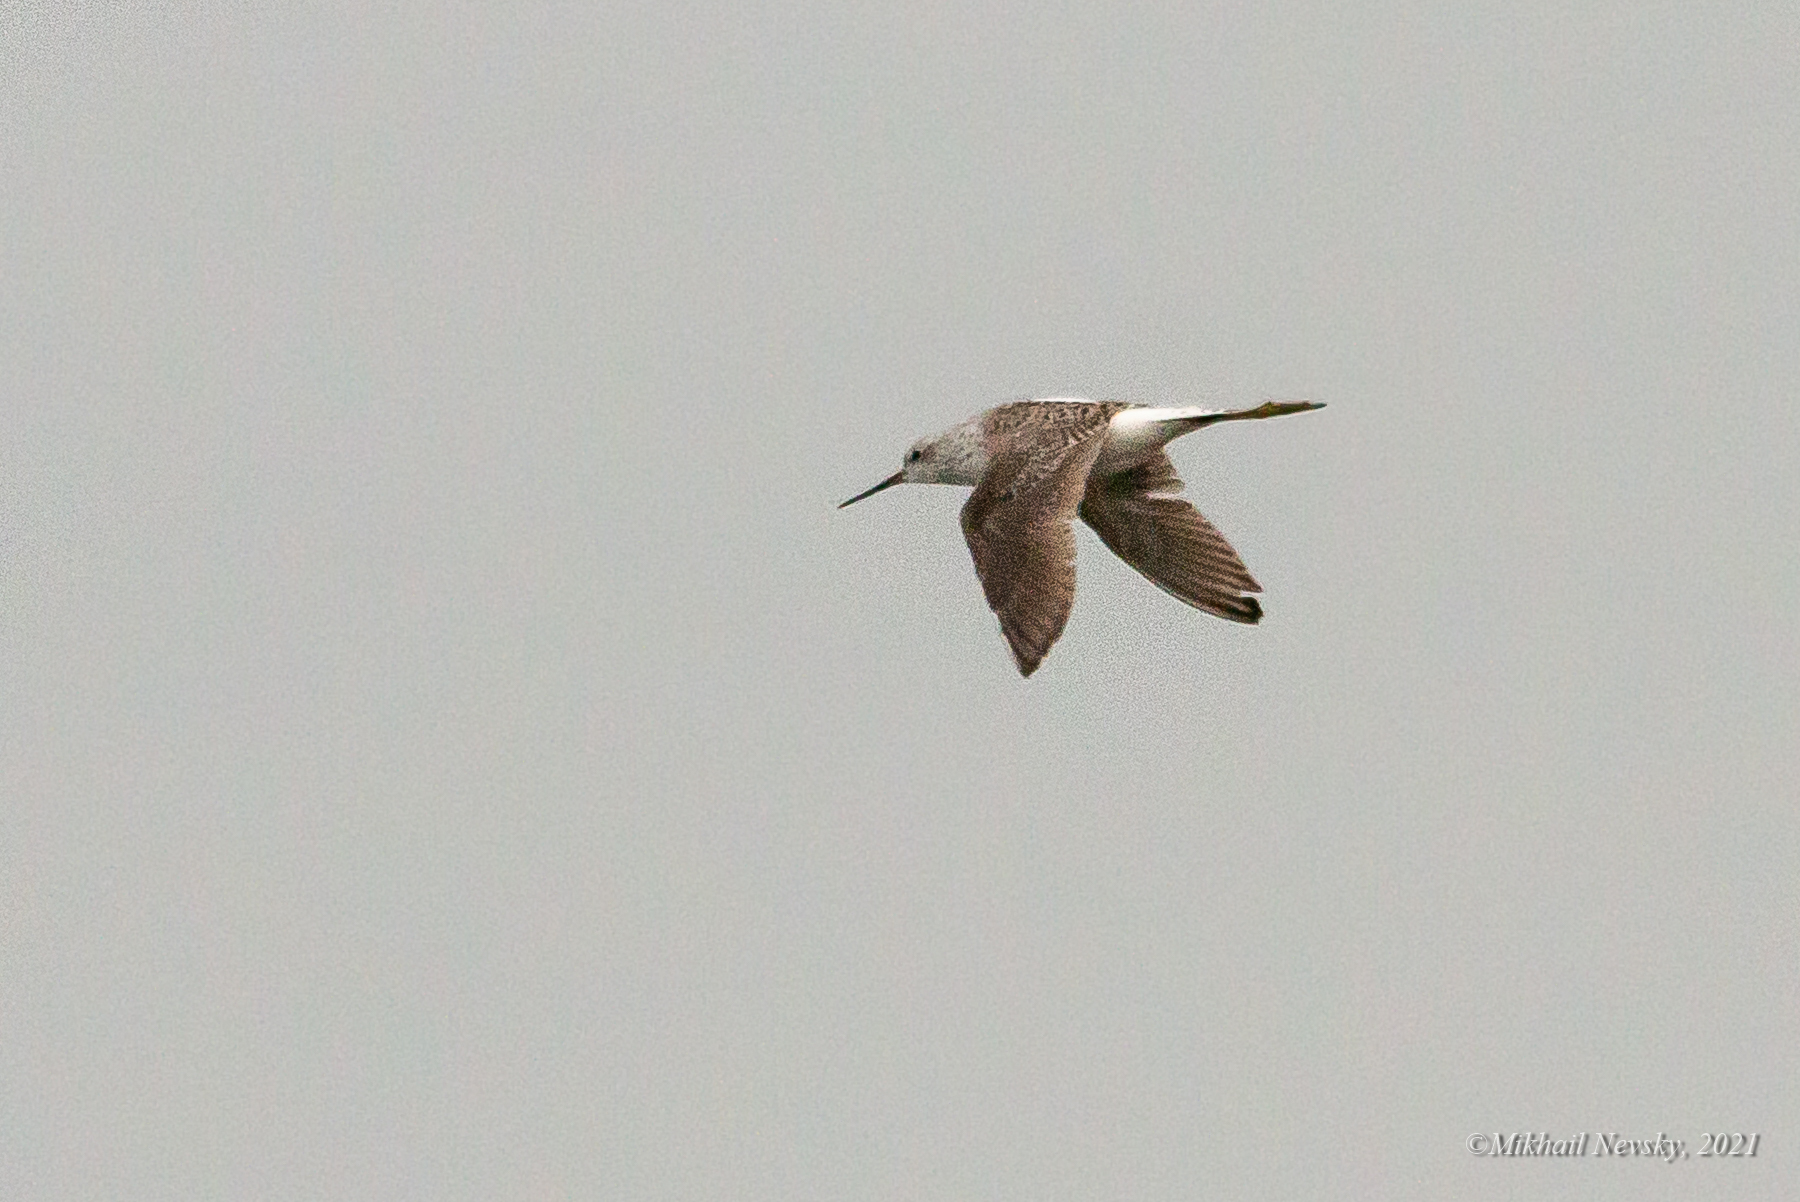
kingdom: Animalia
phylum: Chordata
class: Aves
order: Charadriiformes
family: Scolopacidae
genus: Tringa
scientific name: Tringa stagnatilis
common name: Marsh sandpiper
